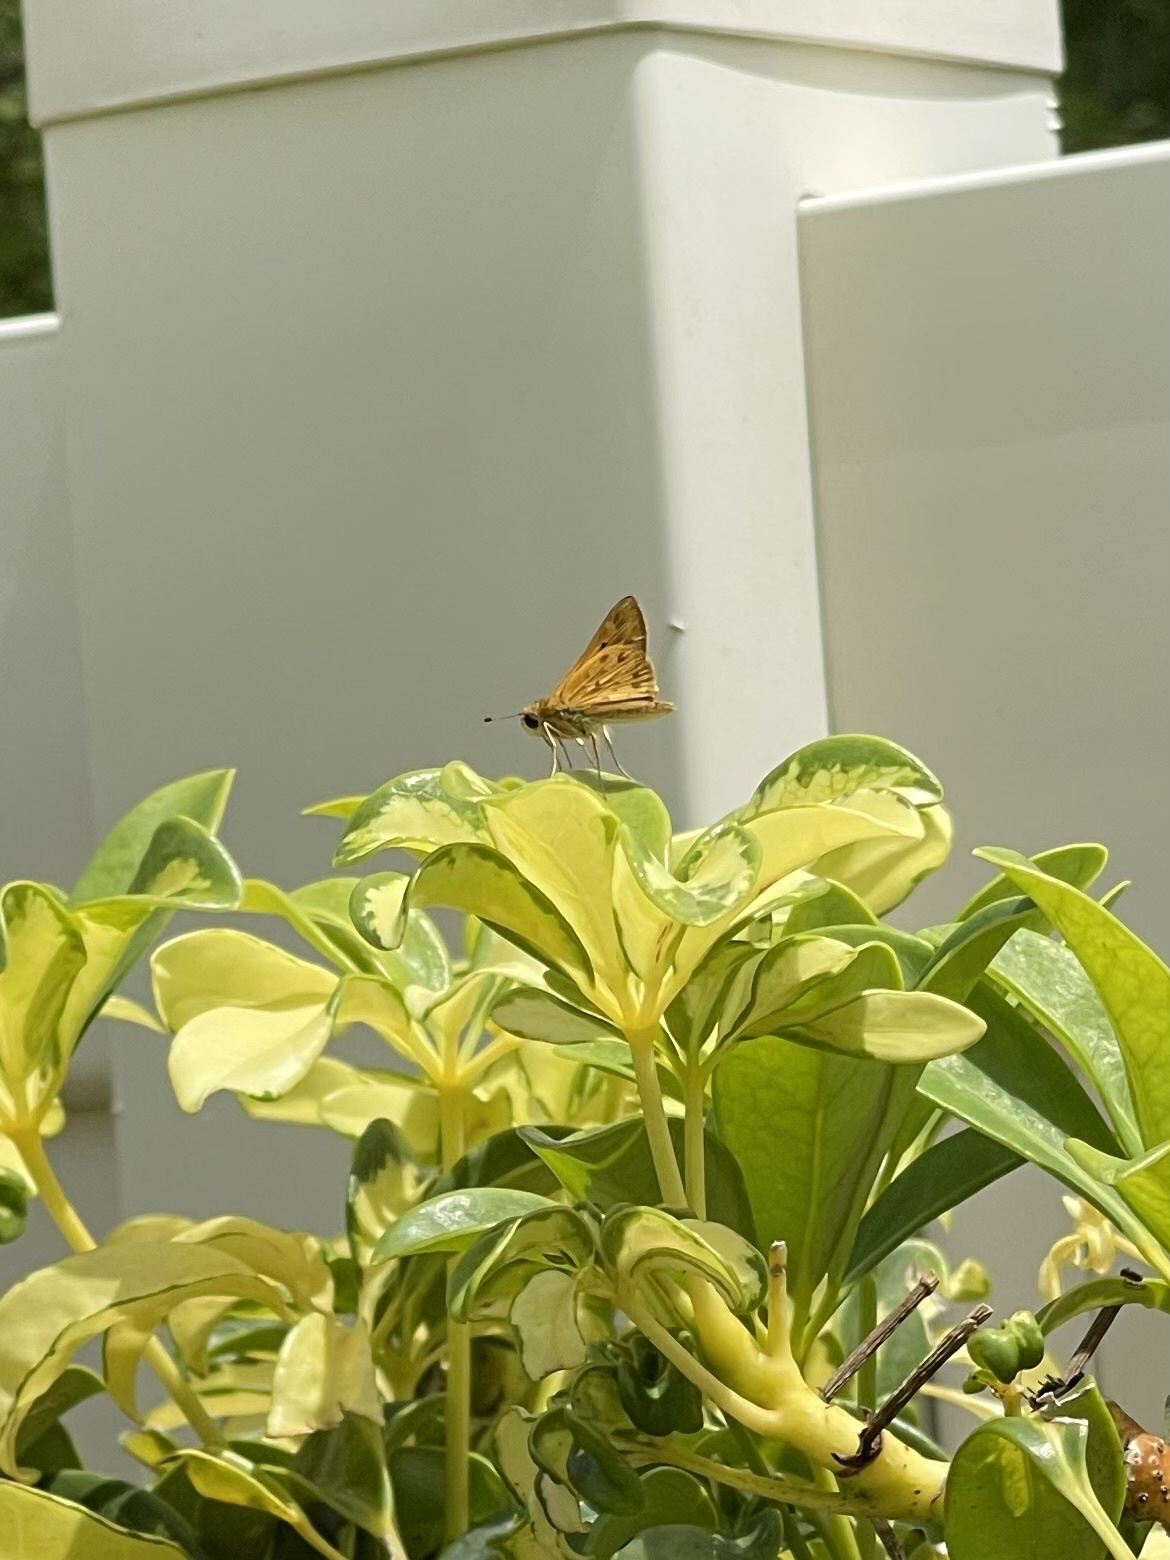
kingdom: Animalia
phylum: Arthropoda
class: Insecta
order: Lepidoptera
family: Hesperiidae
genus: Hylephila
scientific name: Hylephila phyleus
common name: Fiery skipper
